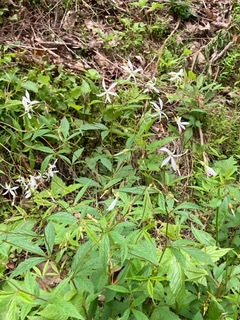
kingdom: Plantae
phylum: Tracheophyta
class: Magnoliopsida
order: Rosales
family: Rosaceae
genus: Gillenia
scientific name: Gillenia trifoliata
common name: Bowman's-root
